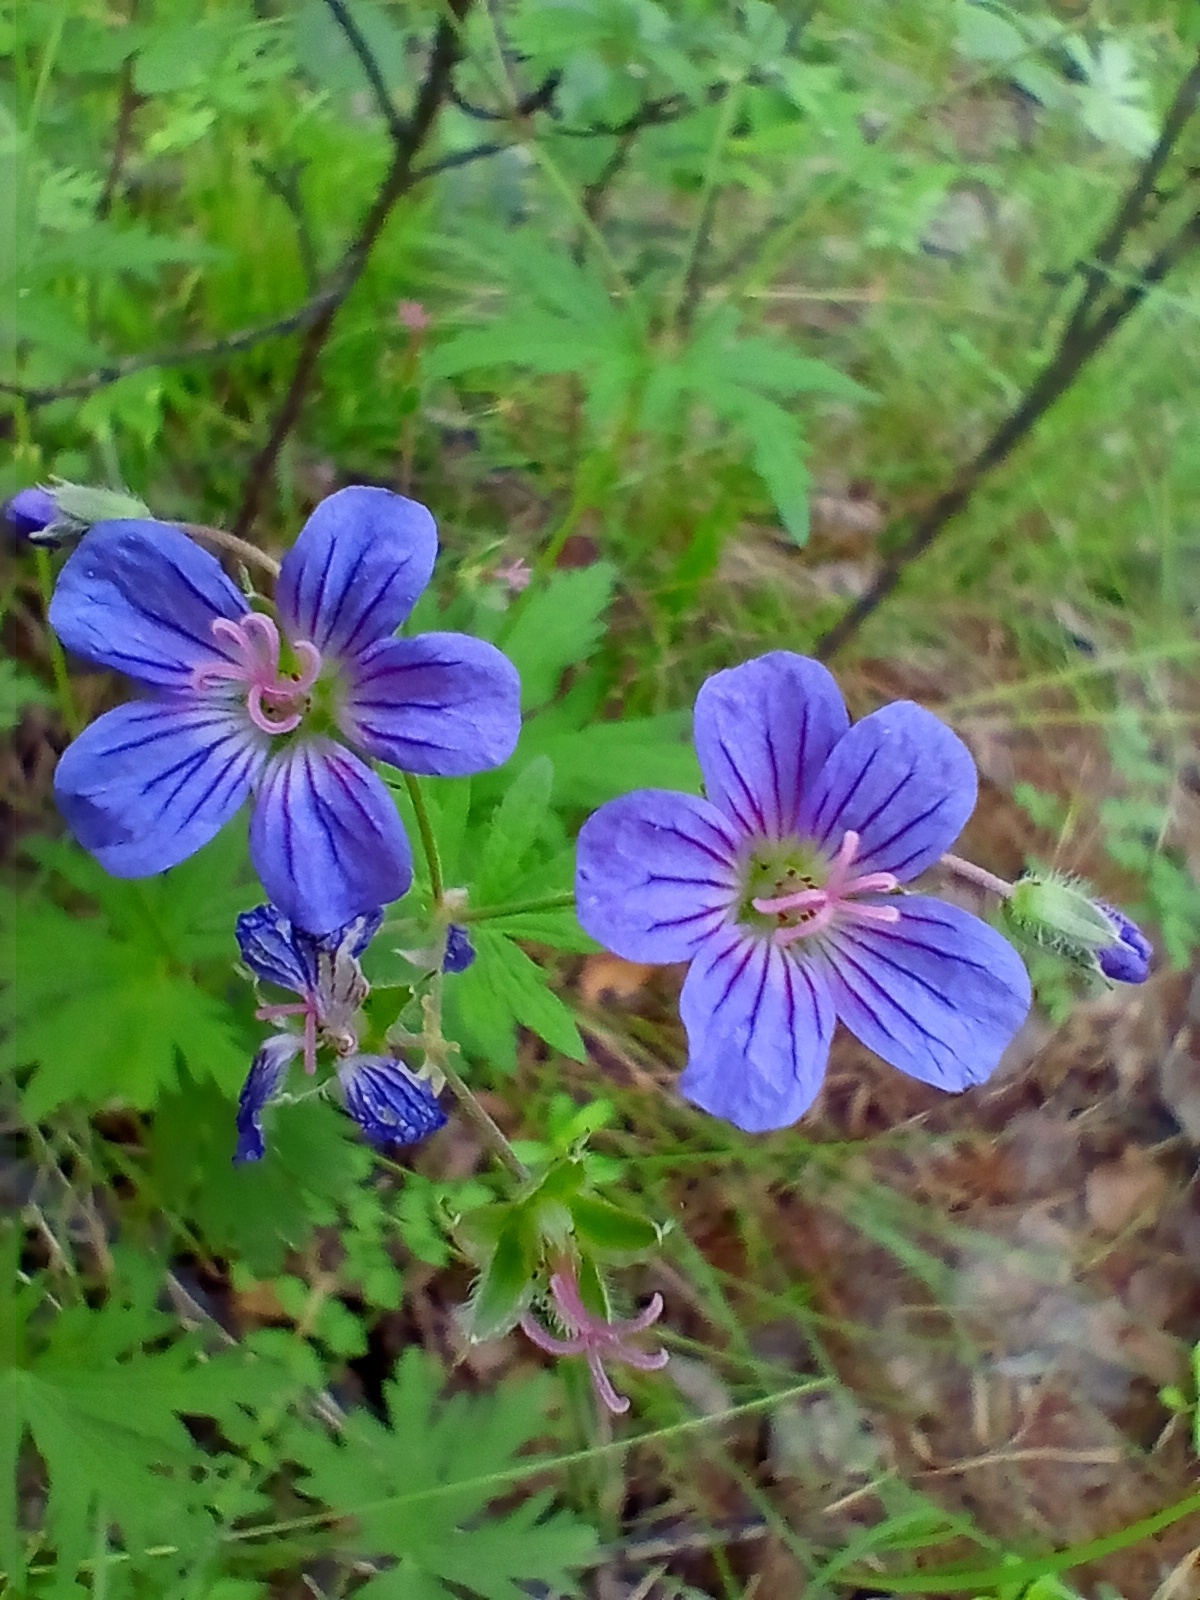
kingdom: Plantae
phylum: Tracheophyta
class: Magnoliopsida
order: Geraniales
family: Geraniaceae
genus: Geranium
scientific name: Geranium pseudosibiricum
